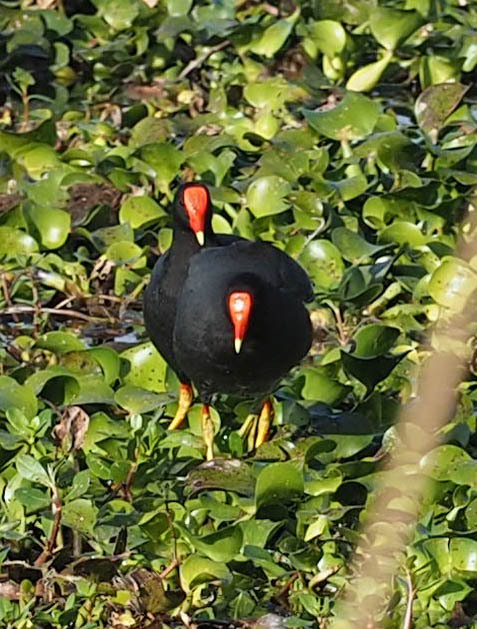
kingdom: Animalia
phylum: Chordata
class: Aves
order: Gruiformes
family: Rallidae
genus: Gallinula
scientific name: Gallinula chloropus
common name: Common moorhen
